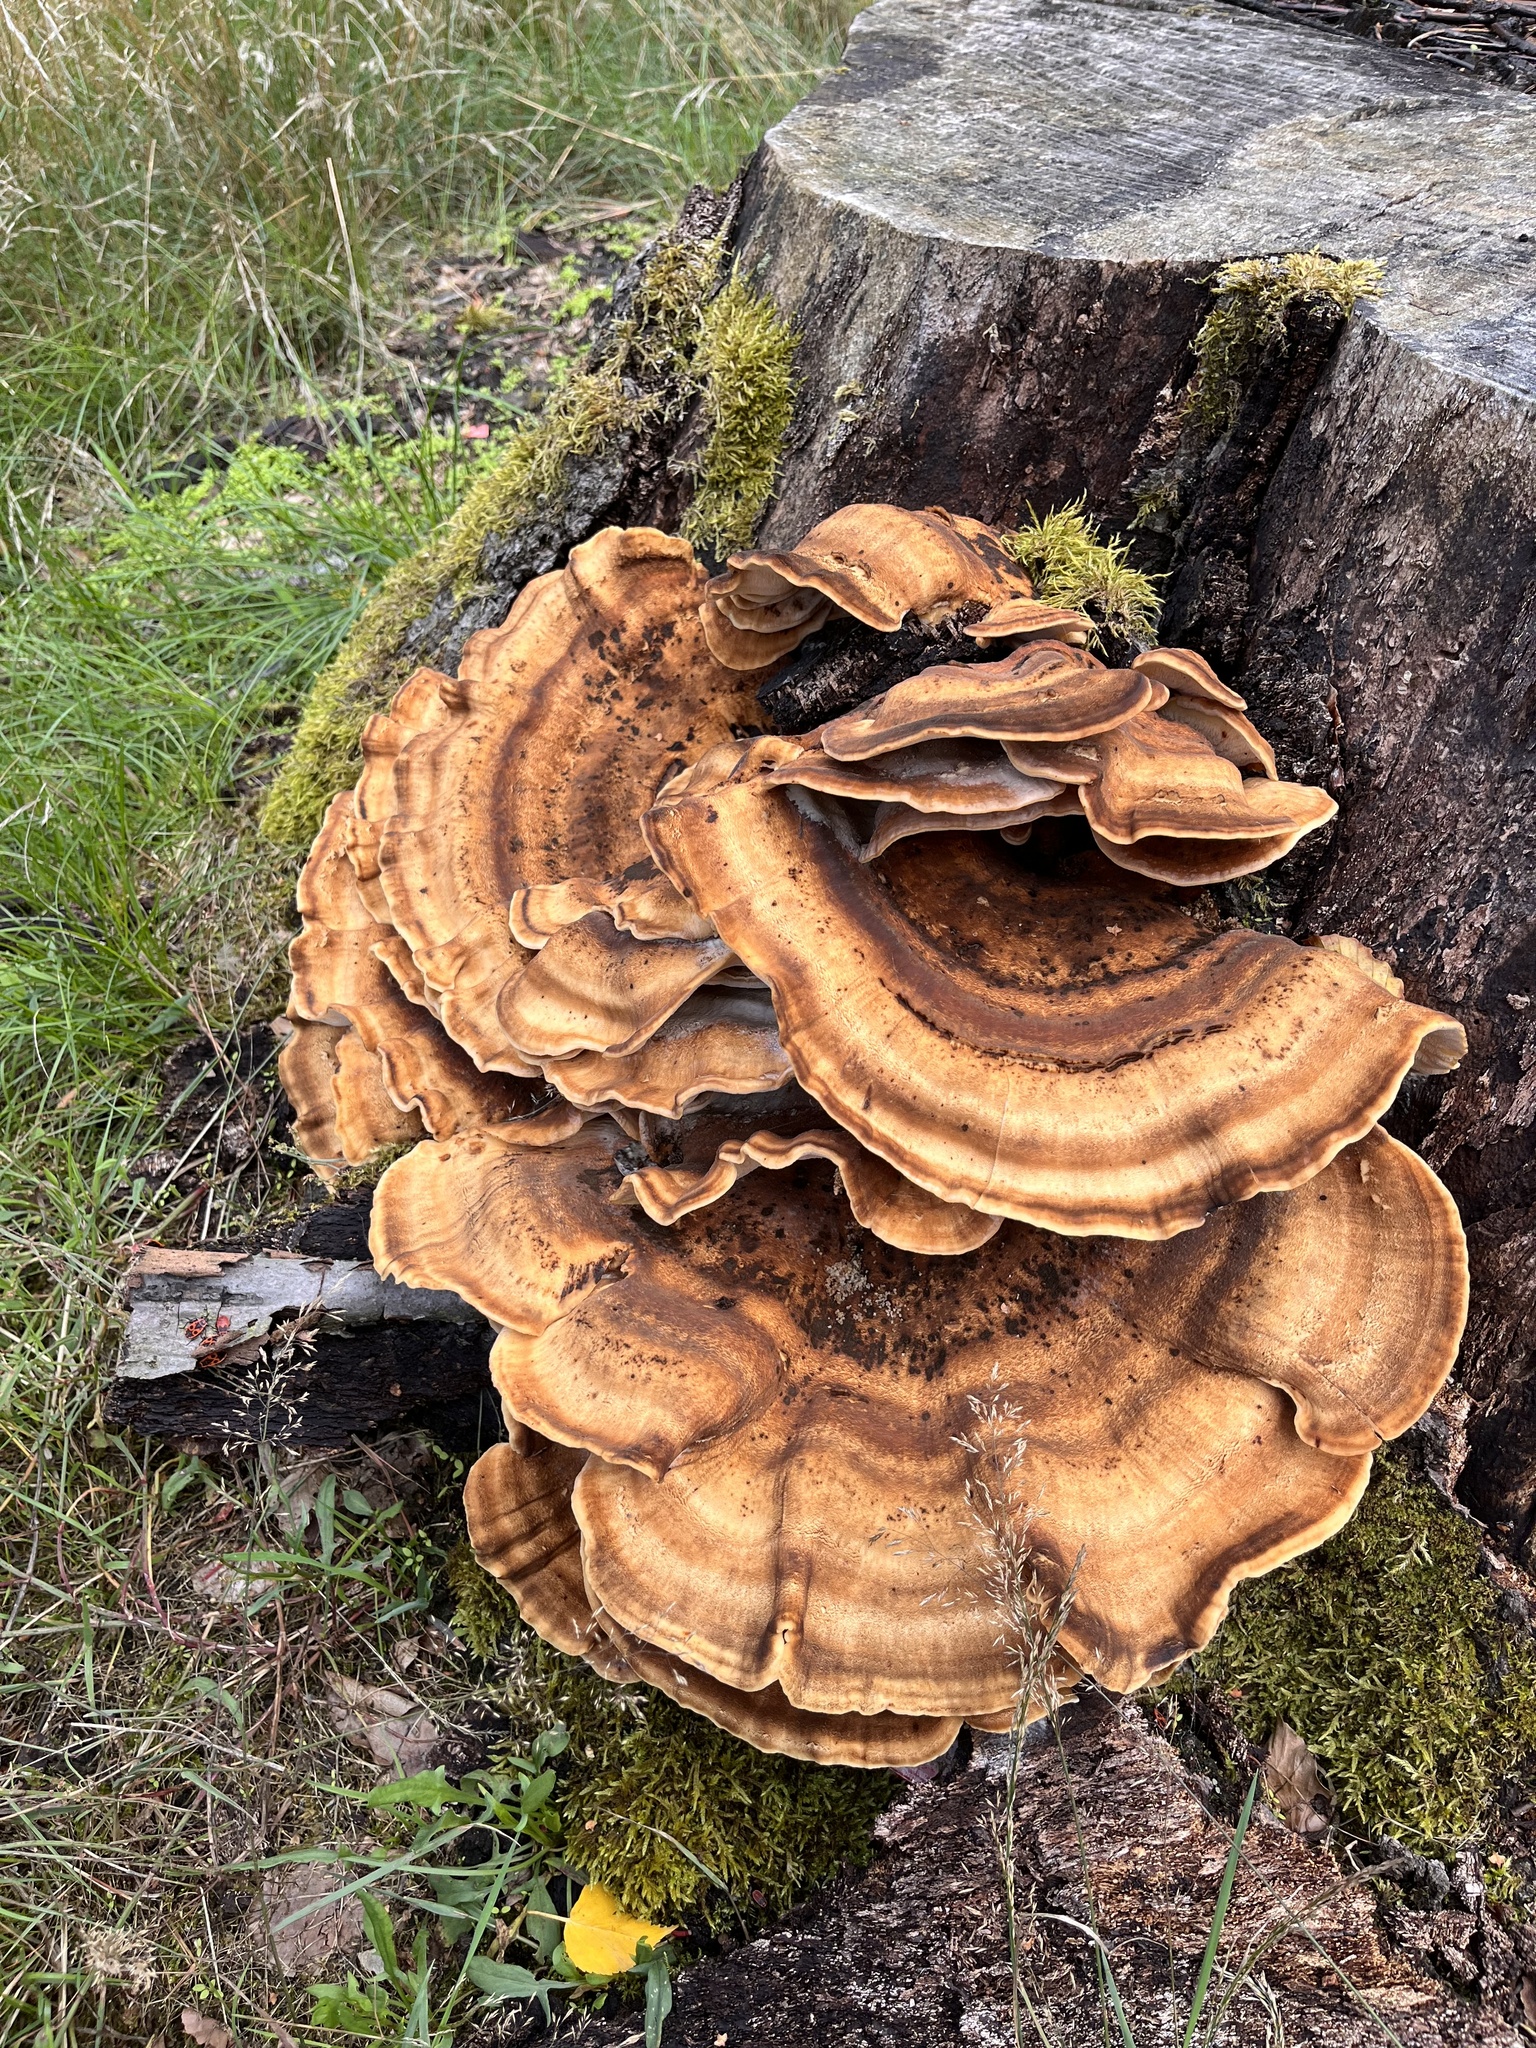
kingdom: Fungi
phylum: Basidiomycota
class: Agaricomycetes
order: Polyporales
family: Meripilaceae
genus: Meripilus
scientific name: Meripilus giganteus
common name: Giant polypore
